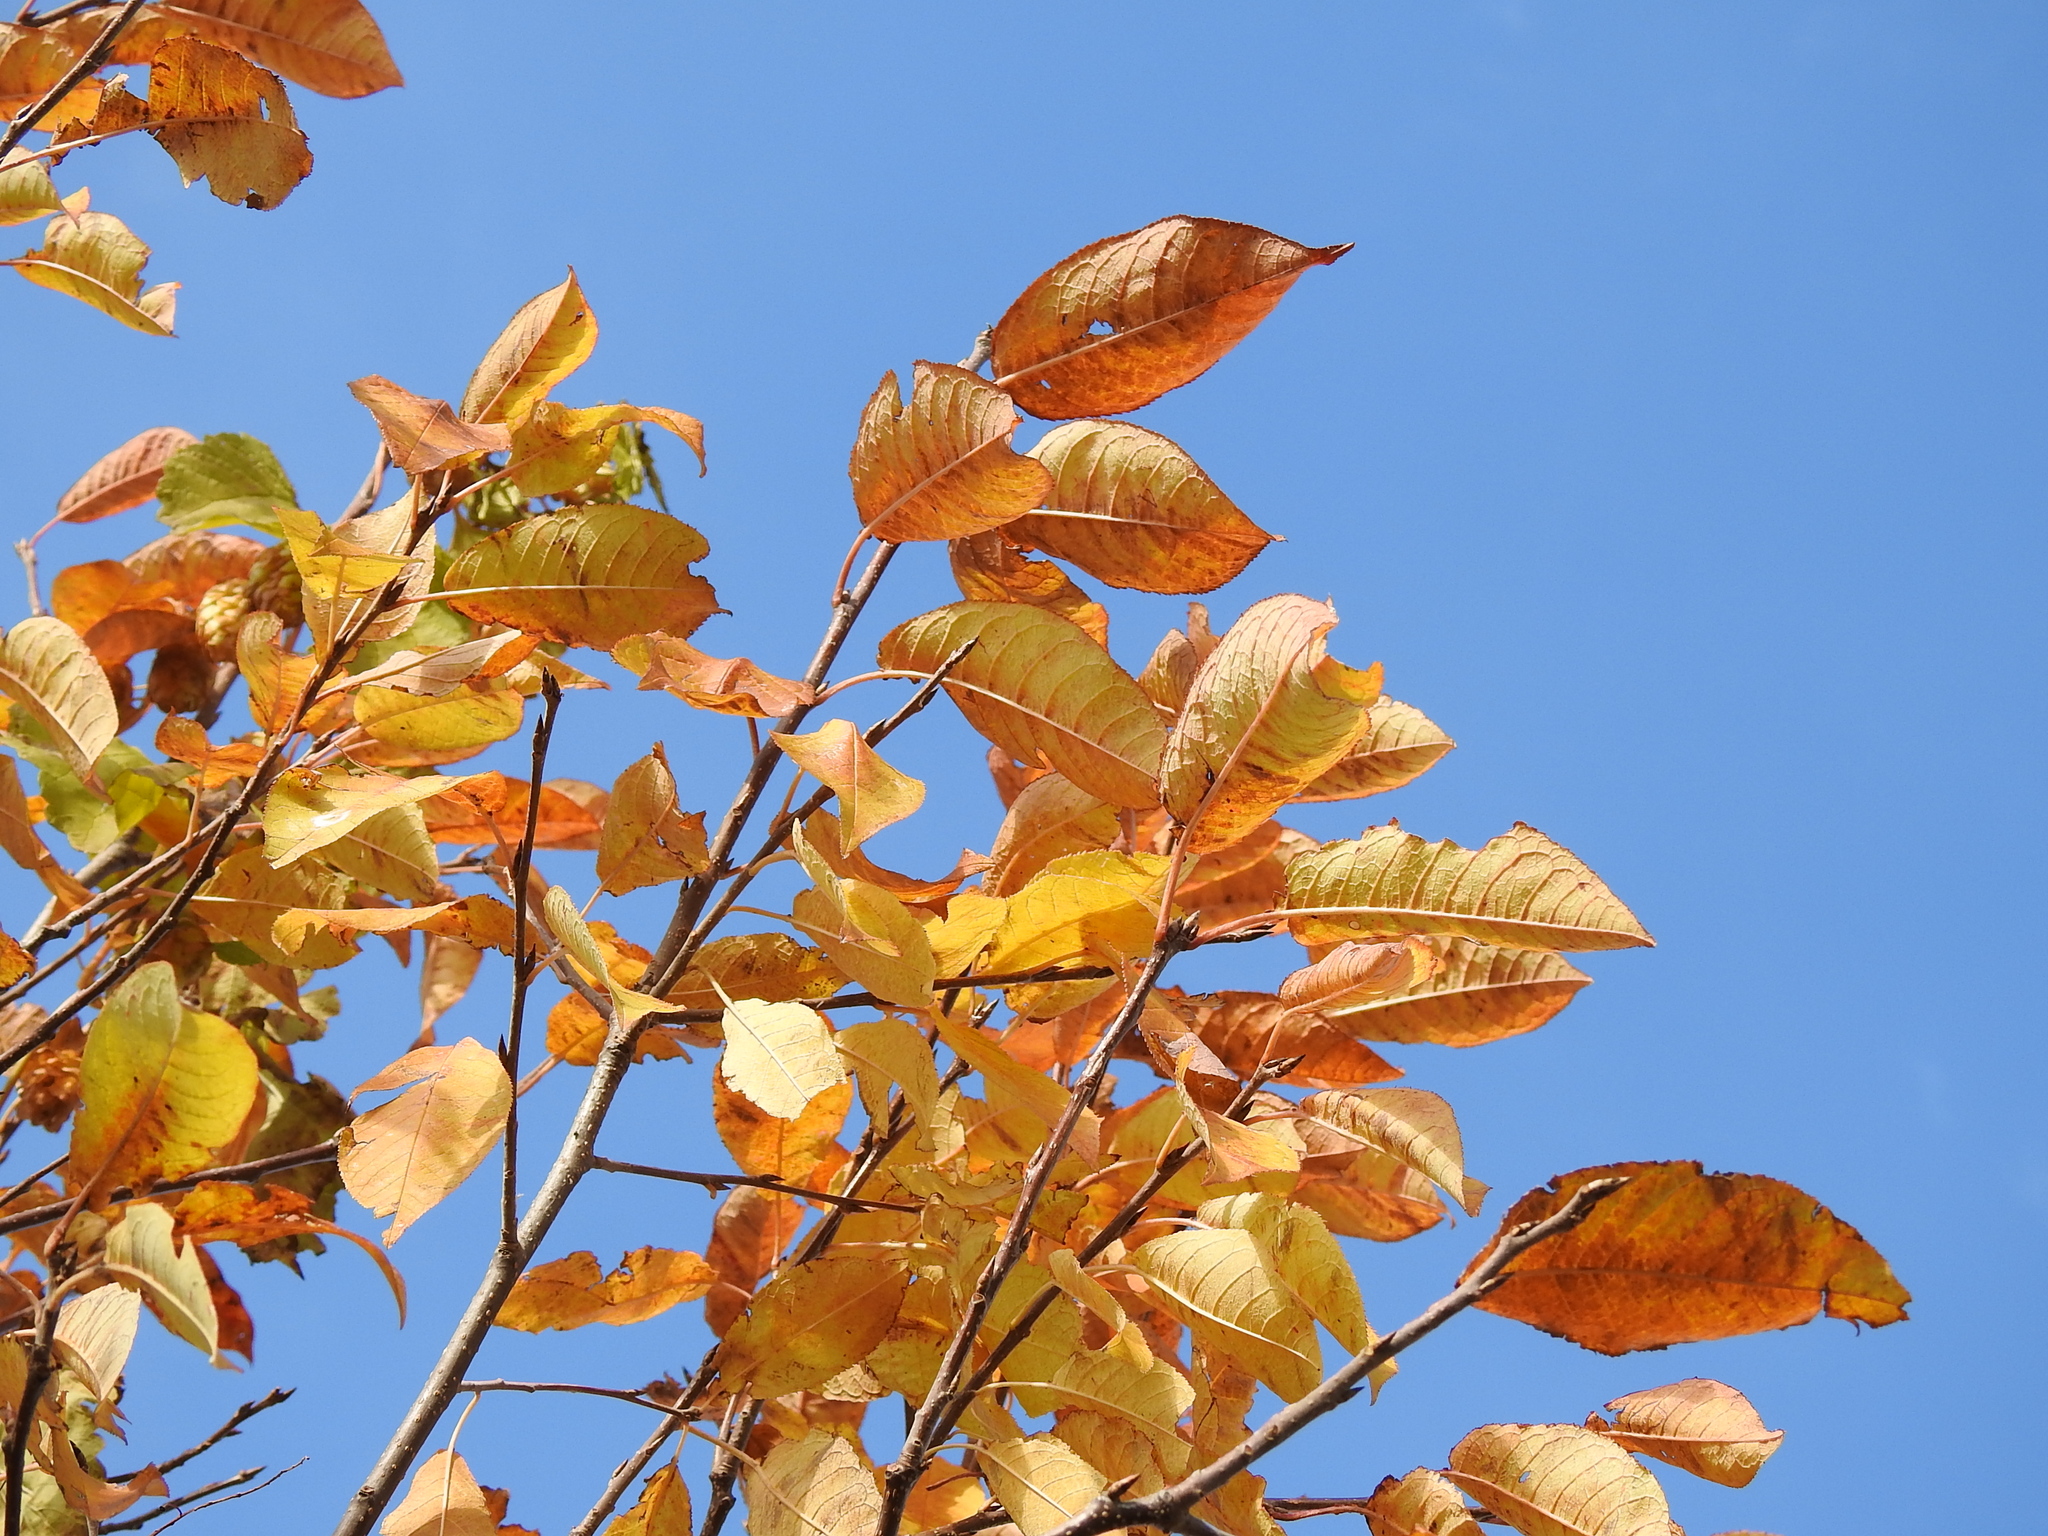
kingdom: Plantae
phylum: Tracheophyta
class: Magnoliopsida
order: Rosales
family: Rosaceae
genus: Prunus
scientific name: Prunus padus
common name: Bird cherry
